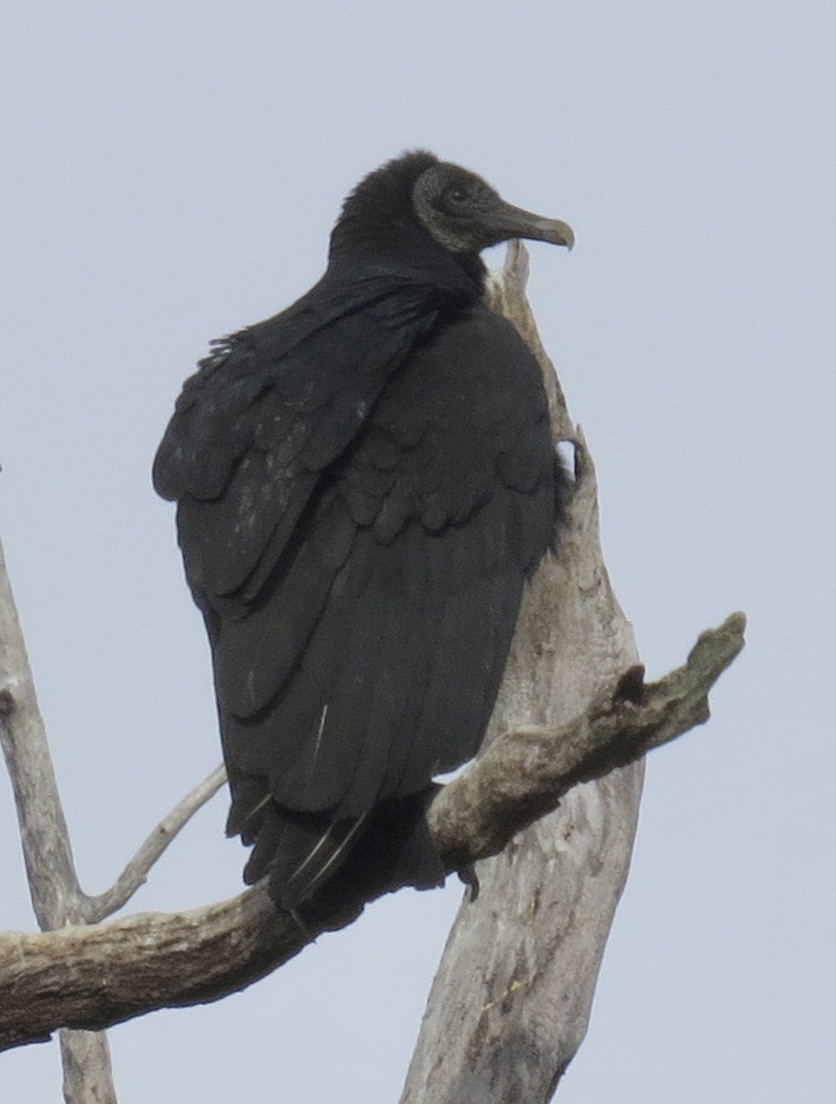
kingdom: Animalia
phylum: Chordata
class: Aves
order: Accipitriformes
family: Cathartidae
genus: Coragyps
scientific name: Coragyps atratus
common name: Black vulture
